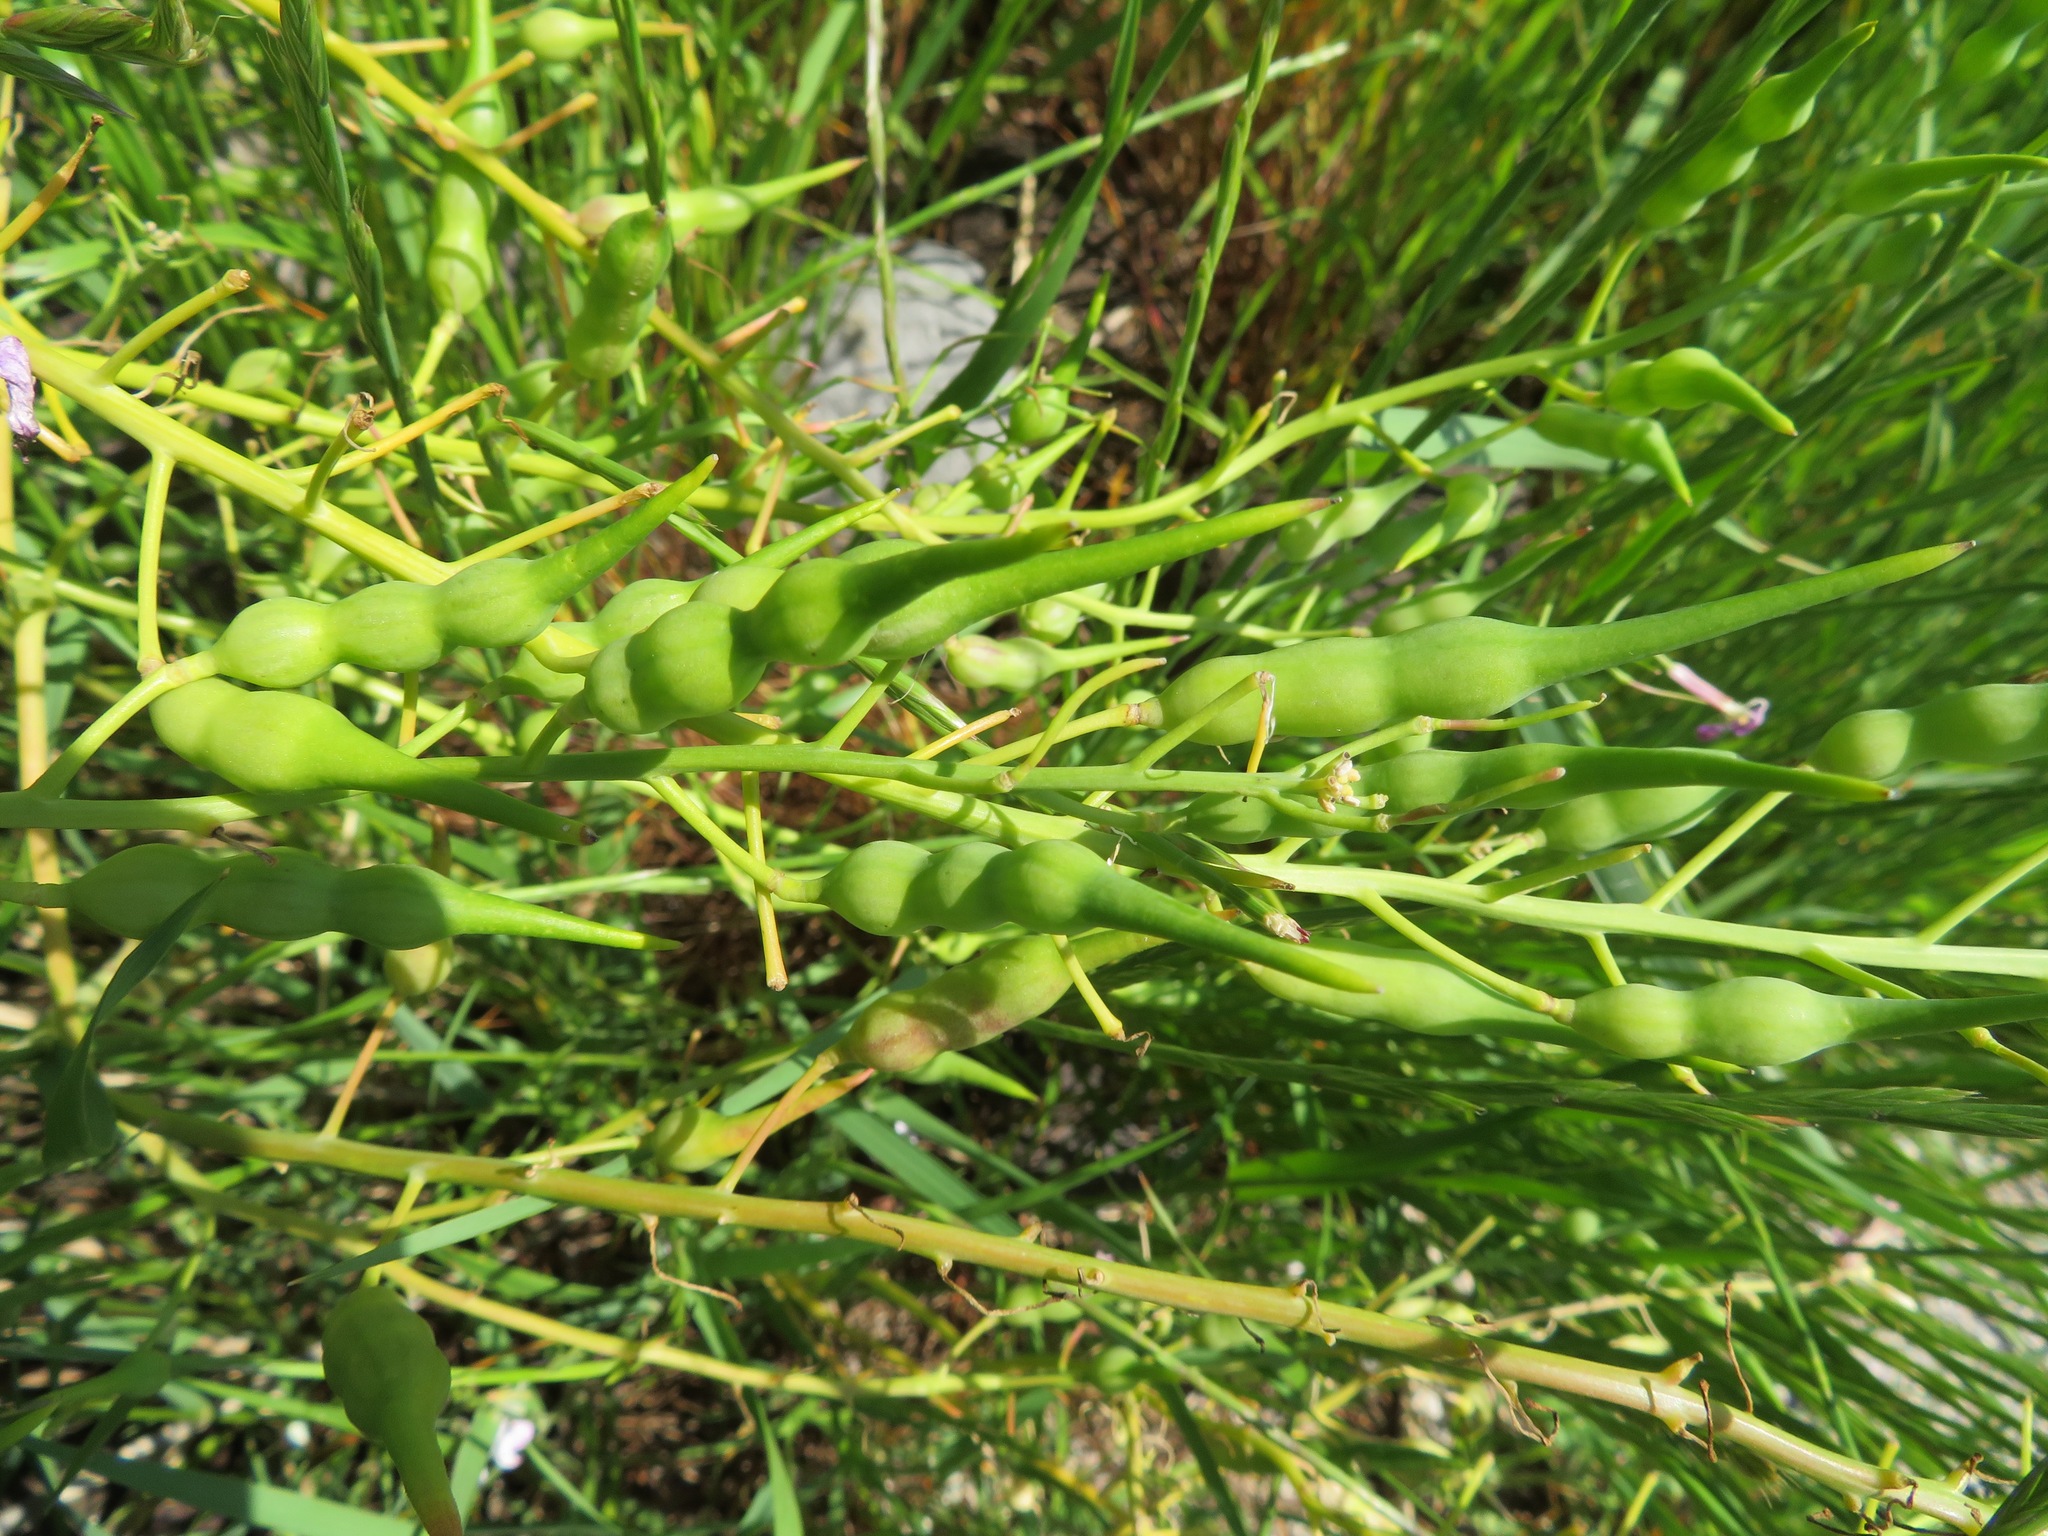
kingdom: Plantae
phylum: Tracheophyta
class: Magnoliopsida
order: Brassicales
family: Brassicaceae
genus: Raphanus
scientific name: Raphanus sativus
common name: Cultivated radish
